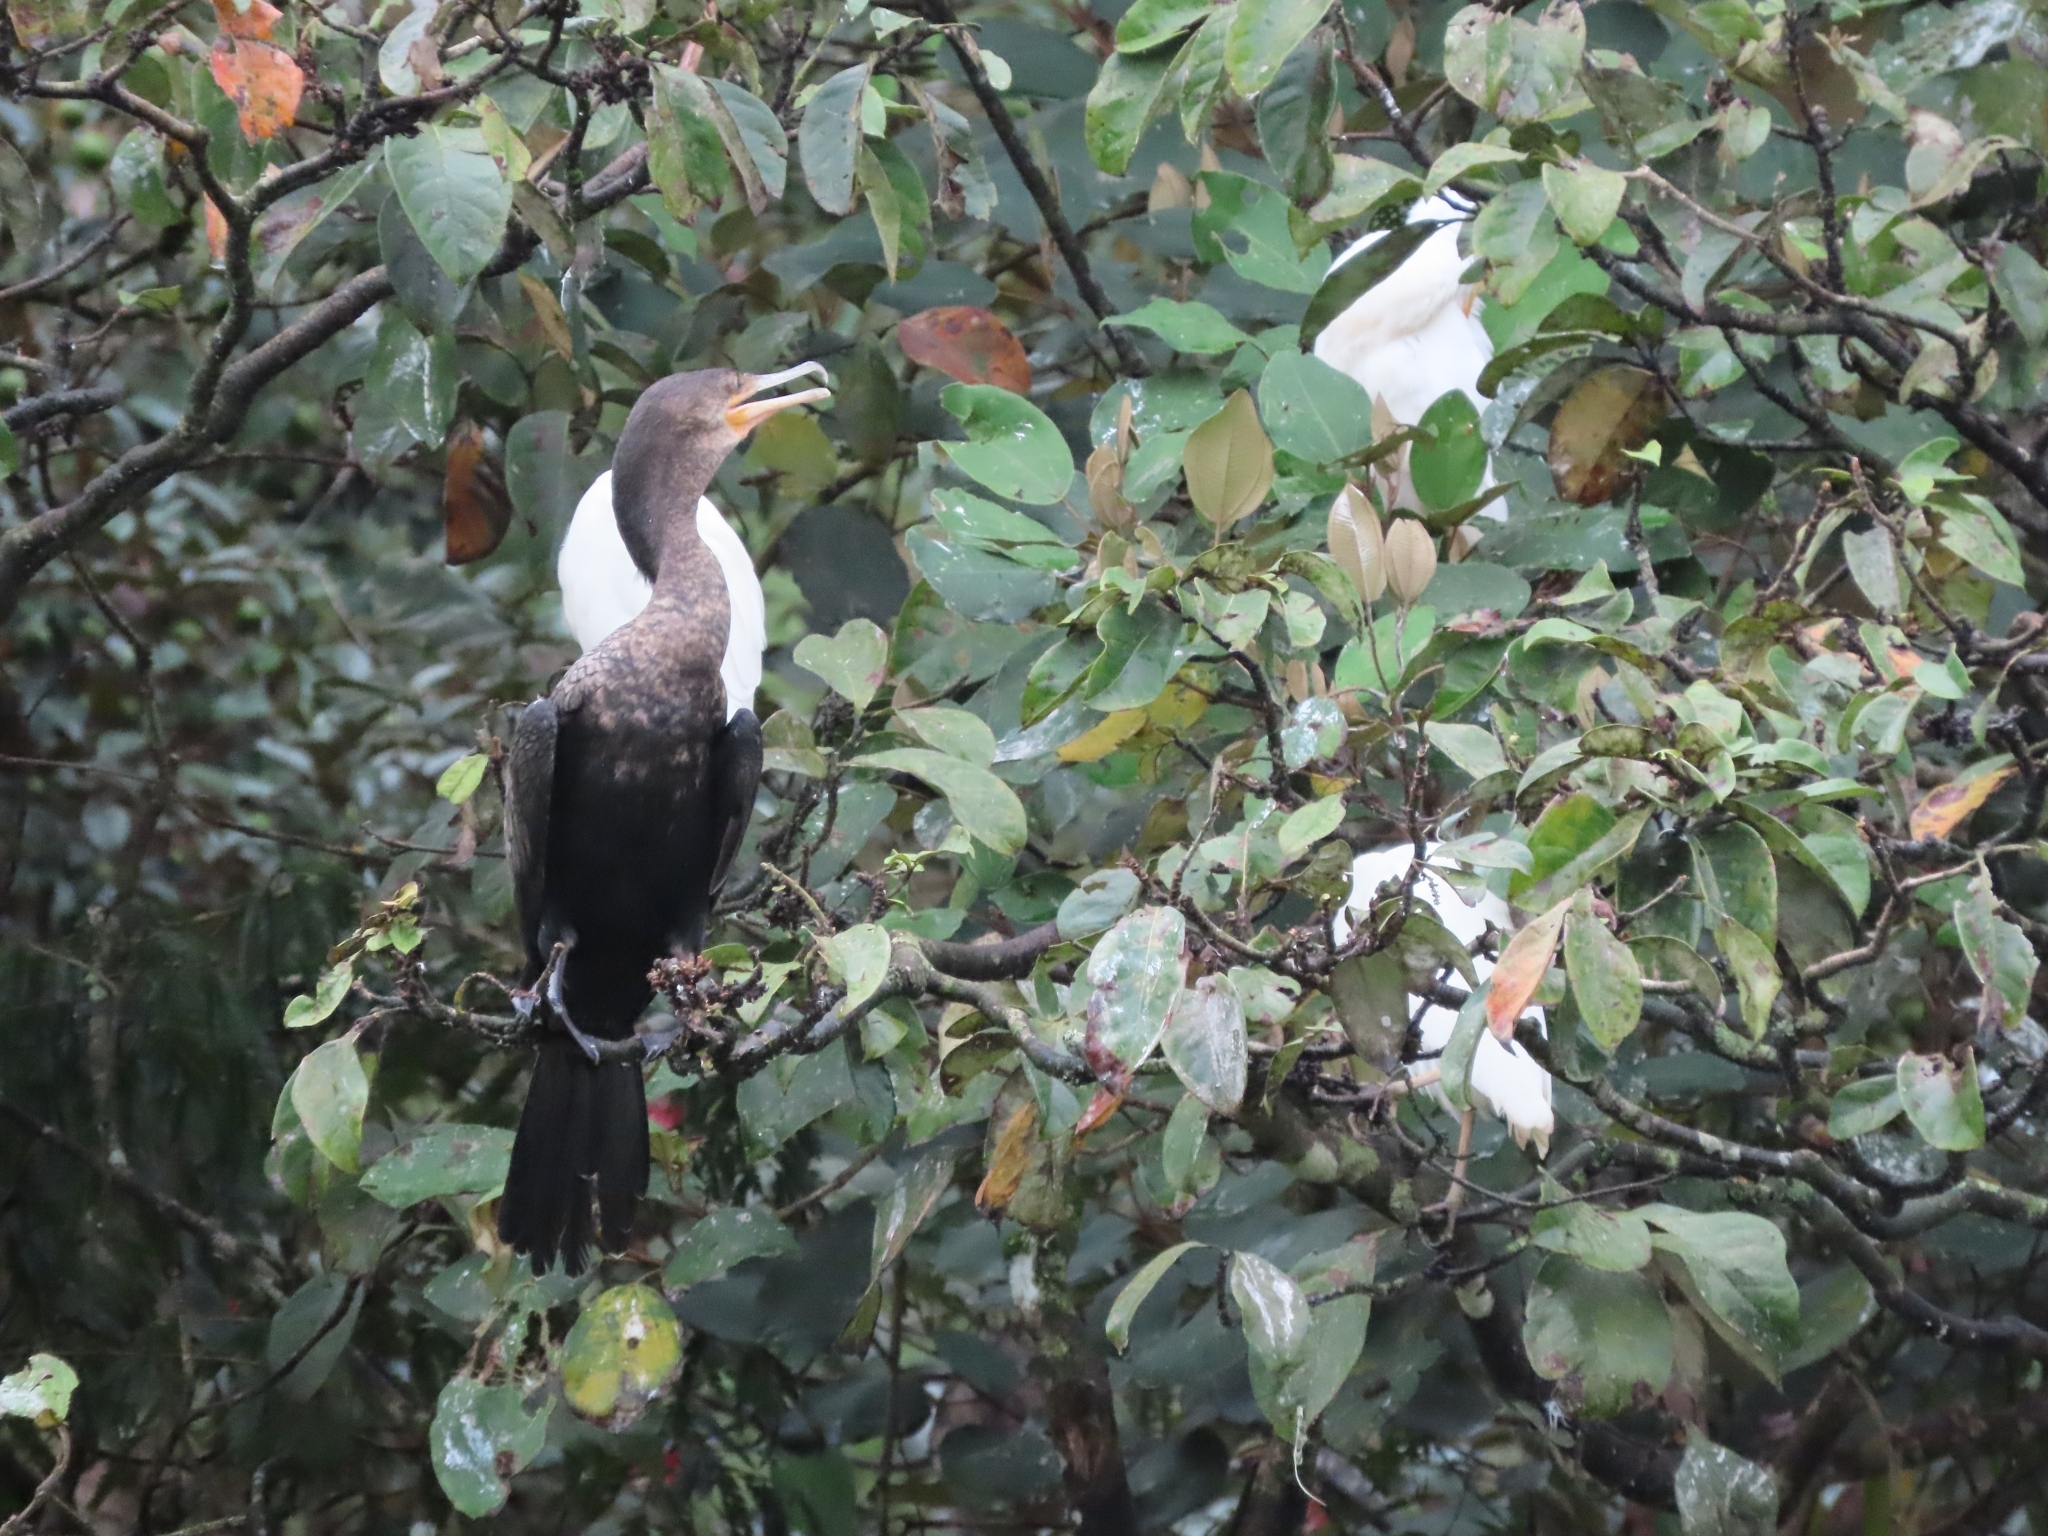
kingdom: Animalia
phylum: Chordata
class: Aves
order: Suliformes
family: Phalacrocoracidae
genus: Phalacrocorax
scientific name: Phalacrocorax brasilianus
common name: Neotropic cormorant
